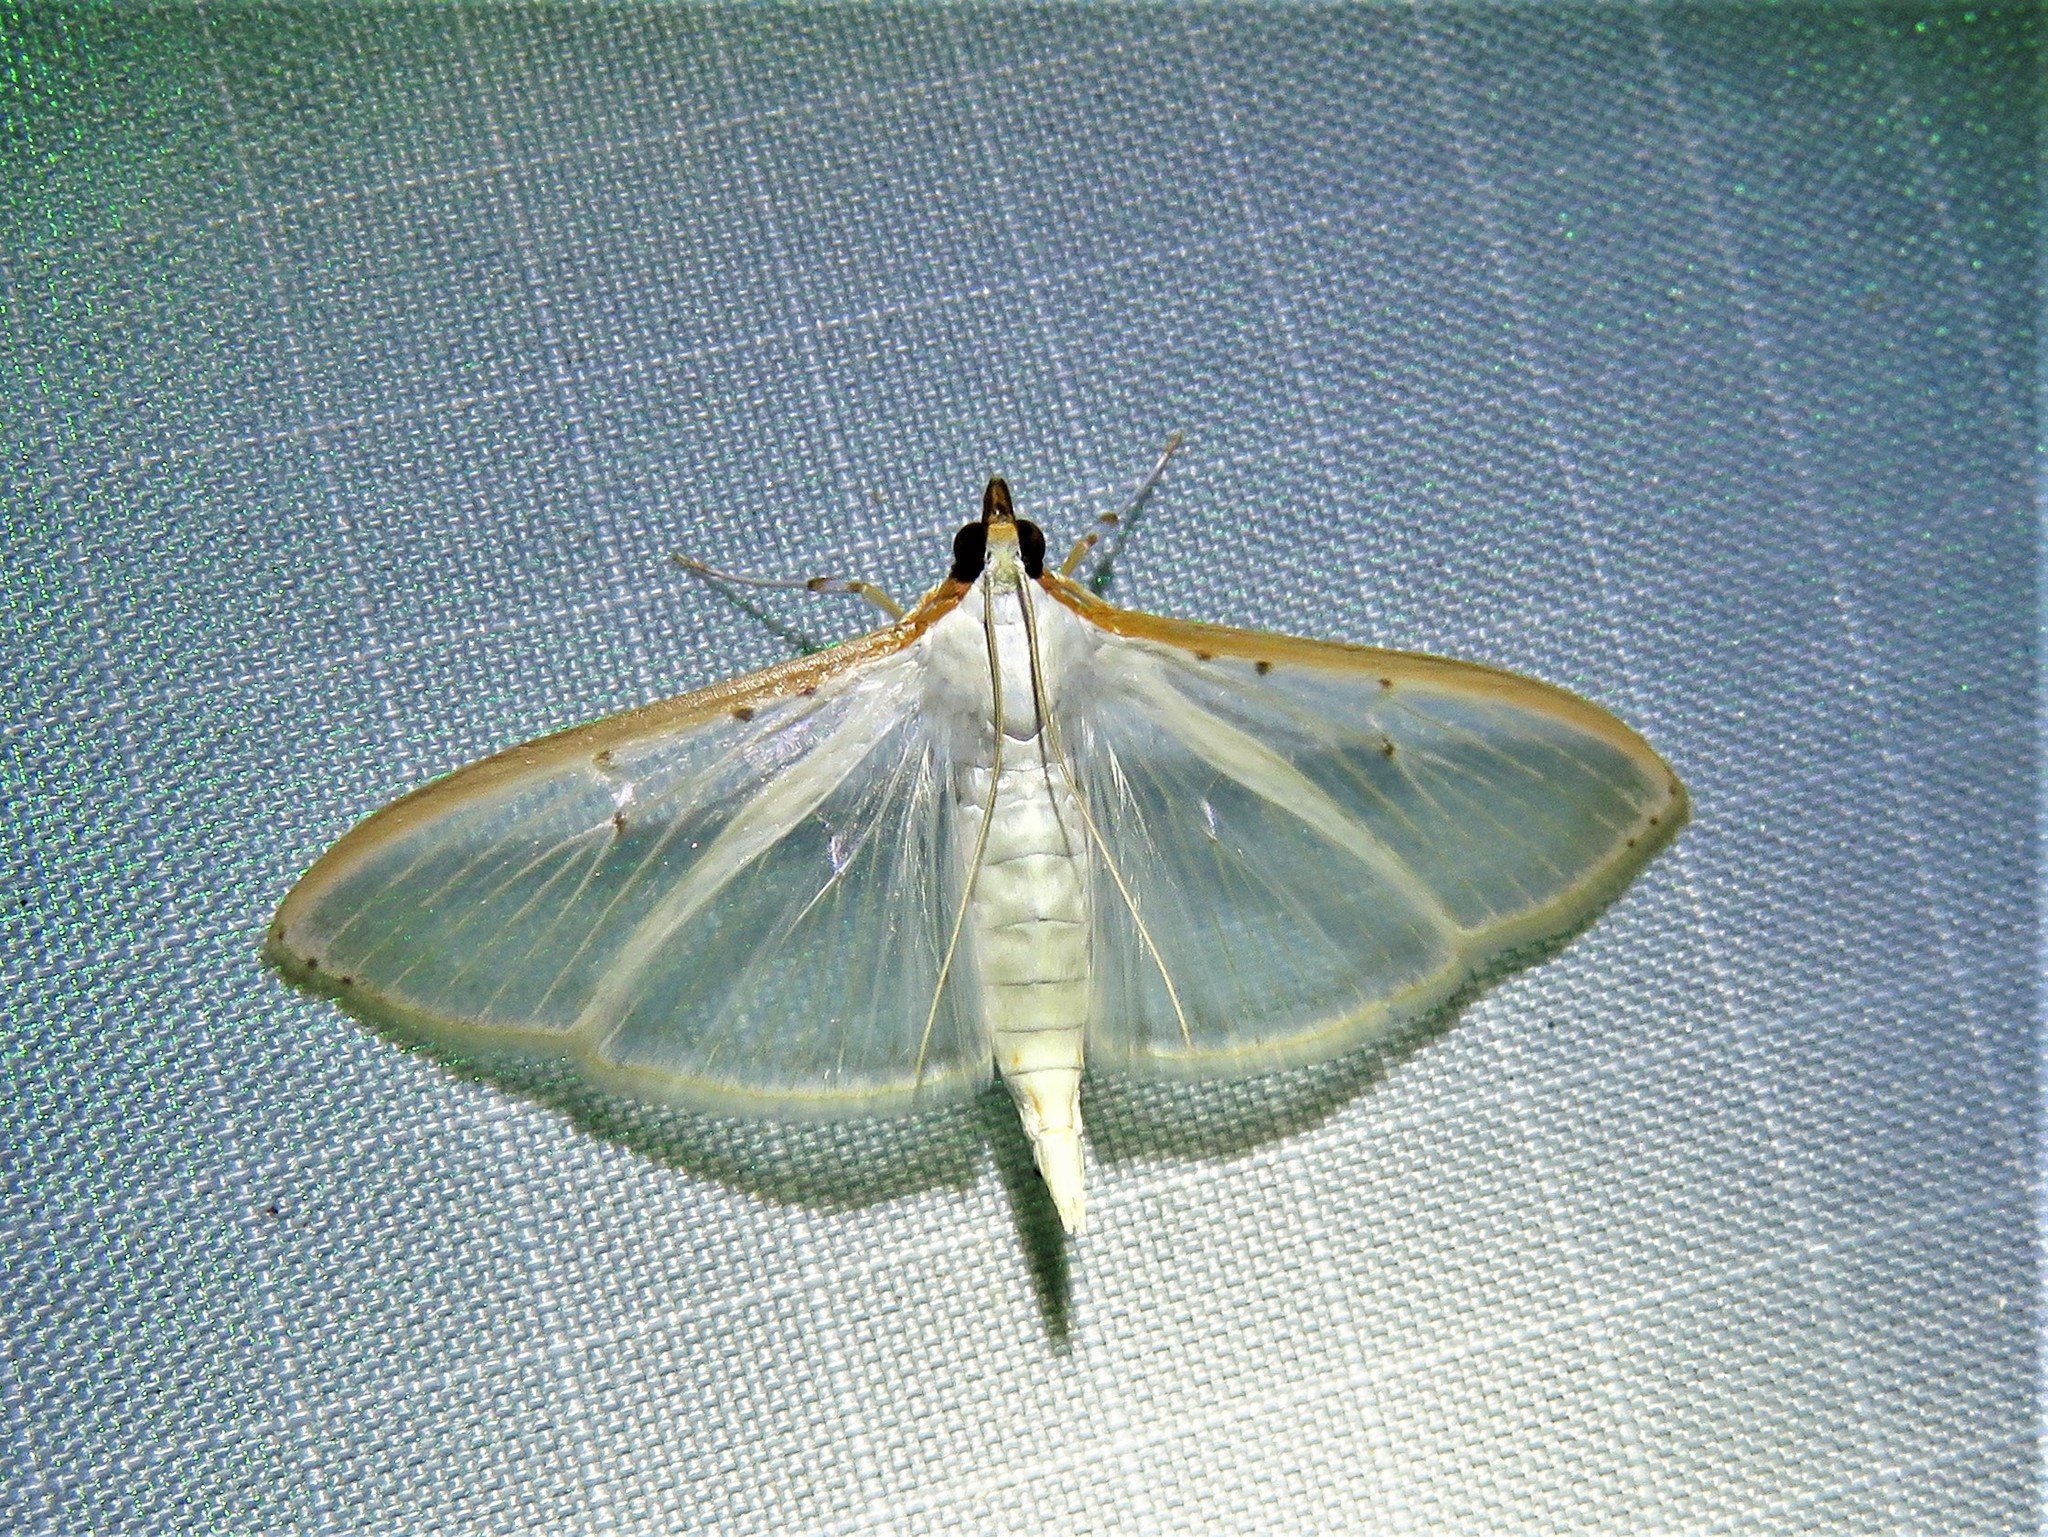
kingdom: Animalia
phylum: Arthropoda
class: Insecta
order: Lepidoptera
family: Crambidae
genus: Palpita
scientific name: Palpita quadristigmalis
